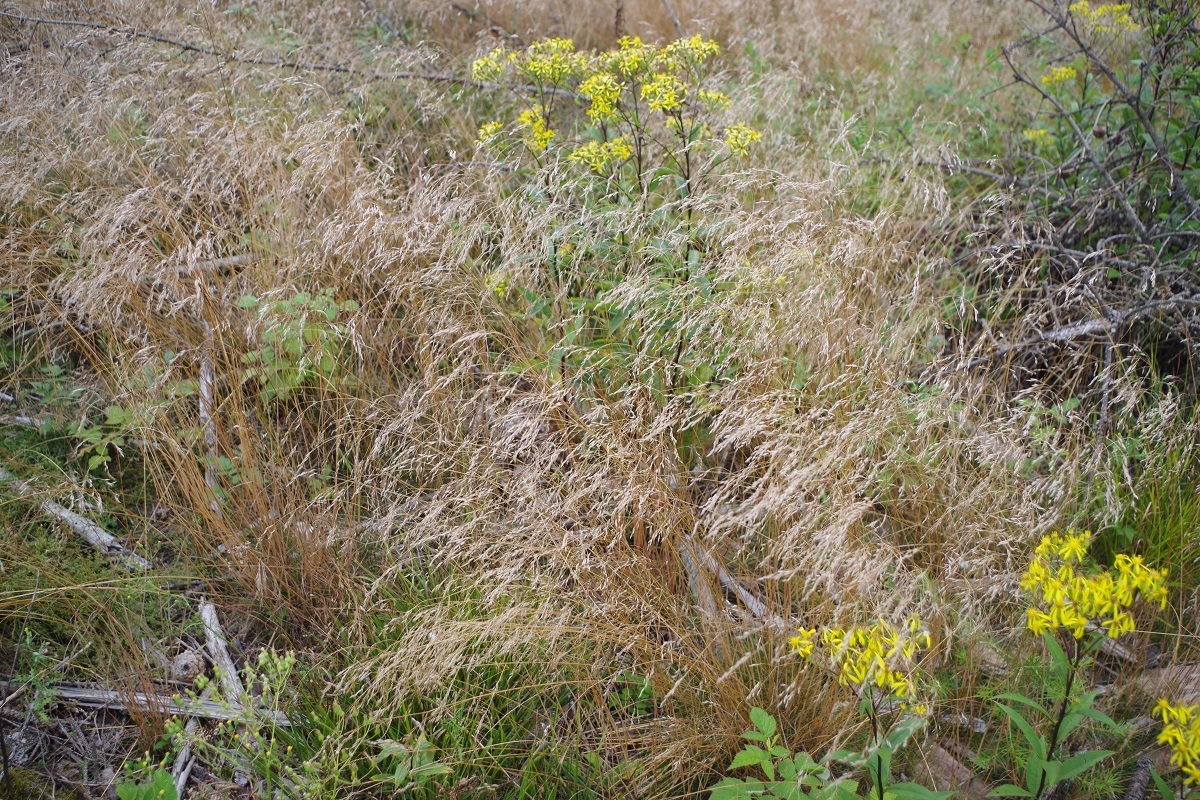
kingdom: Plantae
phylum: Tracheophyta
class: Liliopsida
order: Poales
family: Poaceae
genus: Avenella
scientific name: Avenella flexuosa
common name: Wavy hairgrass
